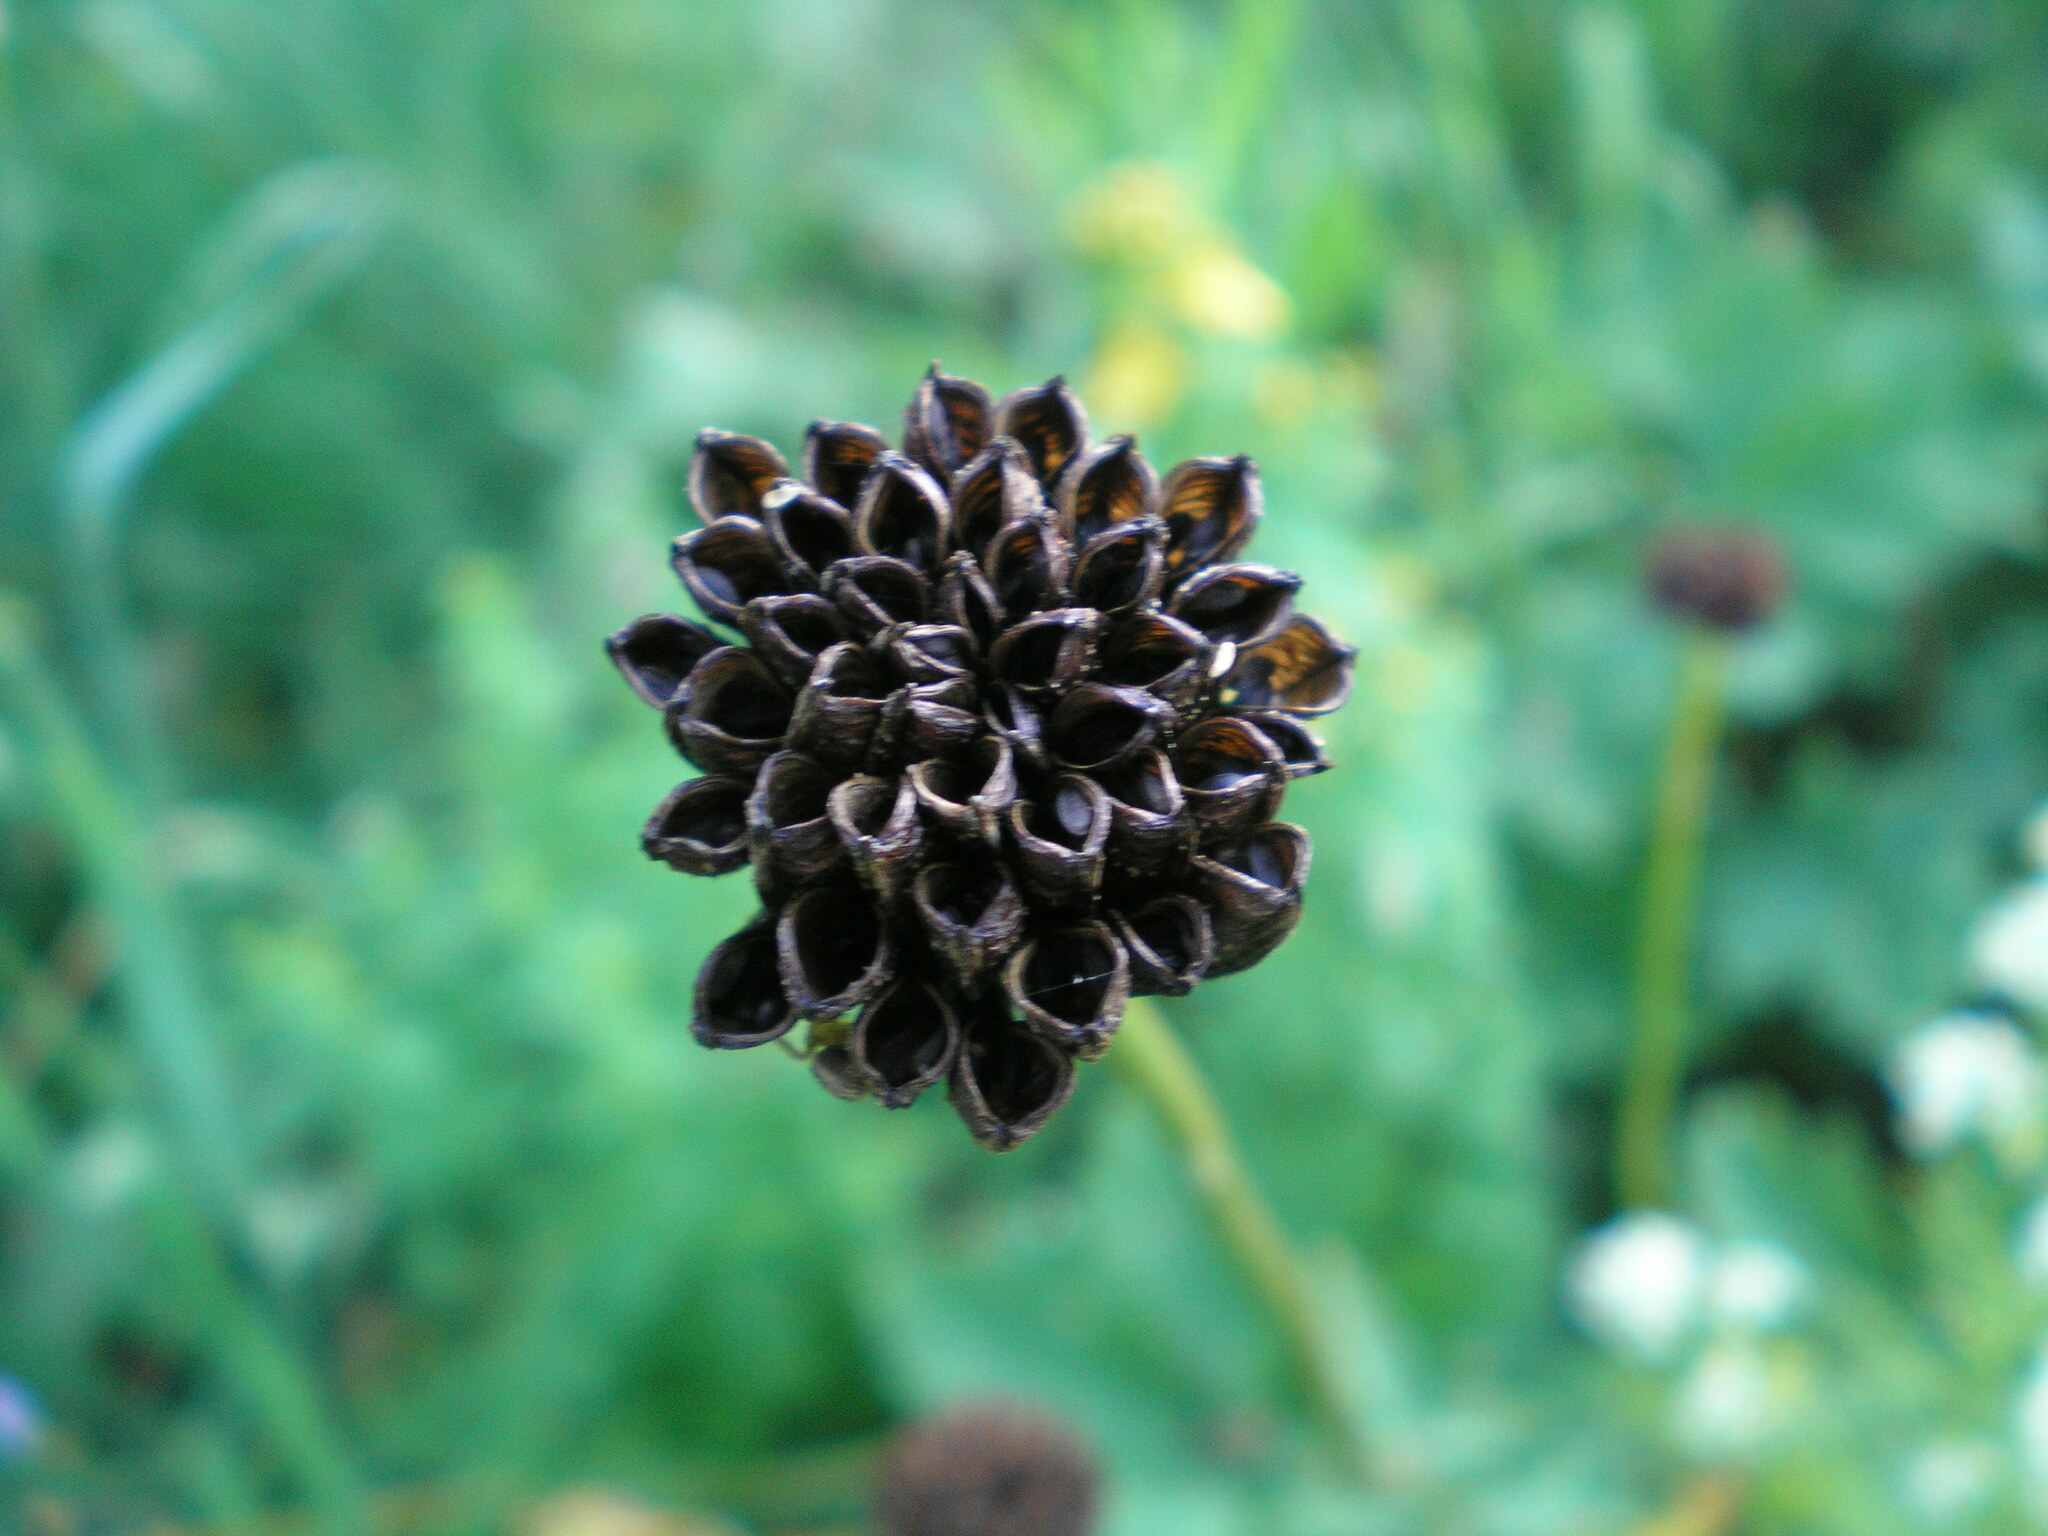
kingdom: Plantae
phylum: Tracheophyta
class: Magnoliopsida
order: Ranunculales
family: Ranunculaceae
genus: Trollius
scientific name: Trollius europaeus
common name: European globeflower
